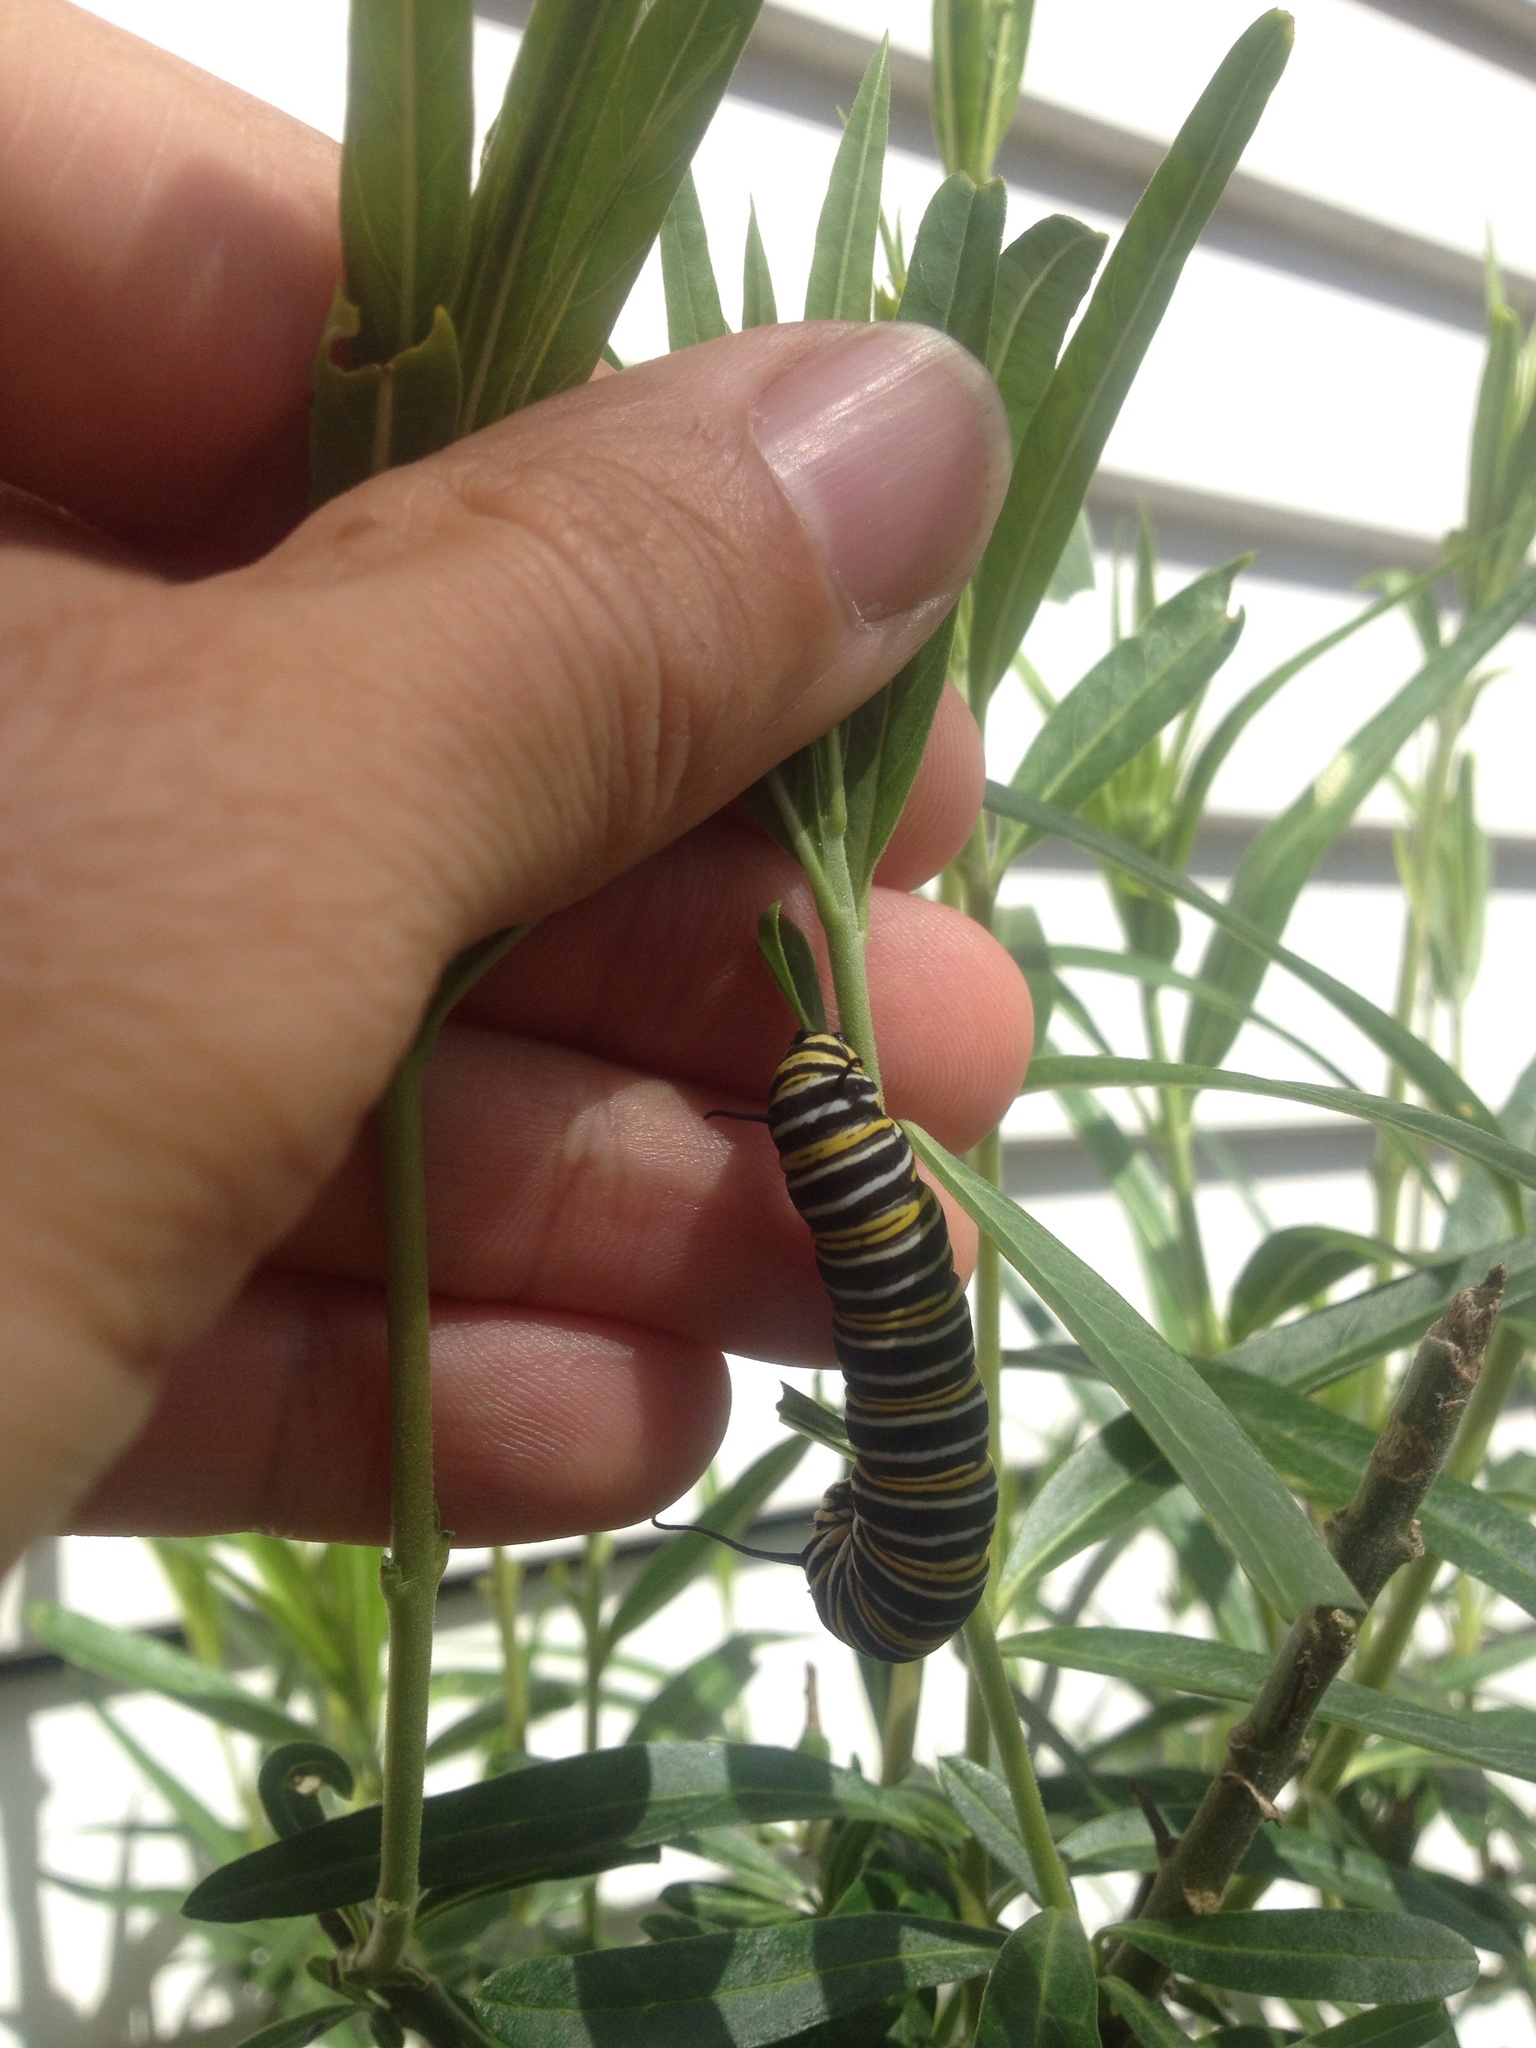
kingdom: Animalia
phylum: Arthropoda
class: Insecta
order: Lepidoptera
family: Nymphalidae
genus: Danaus
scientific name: Danaus plexippus
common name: Monarch
